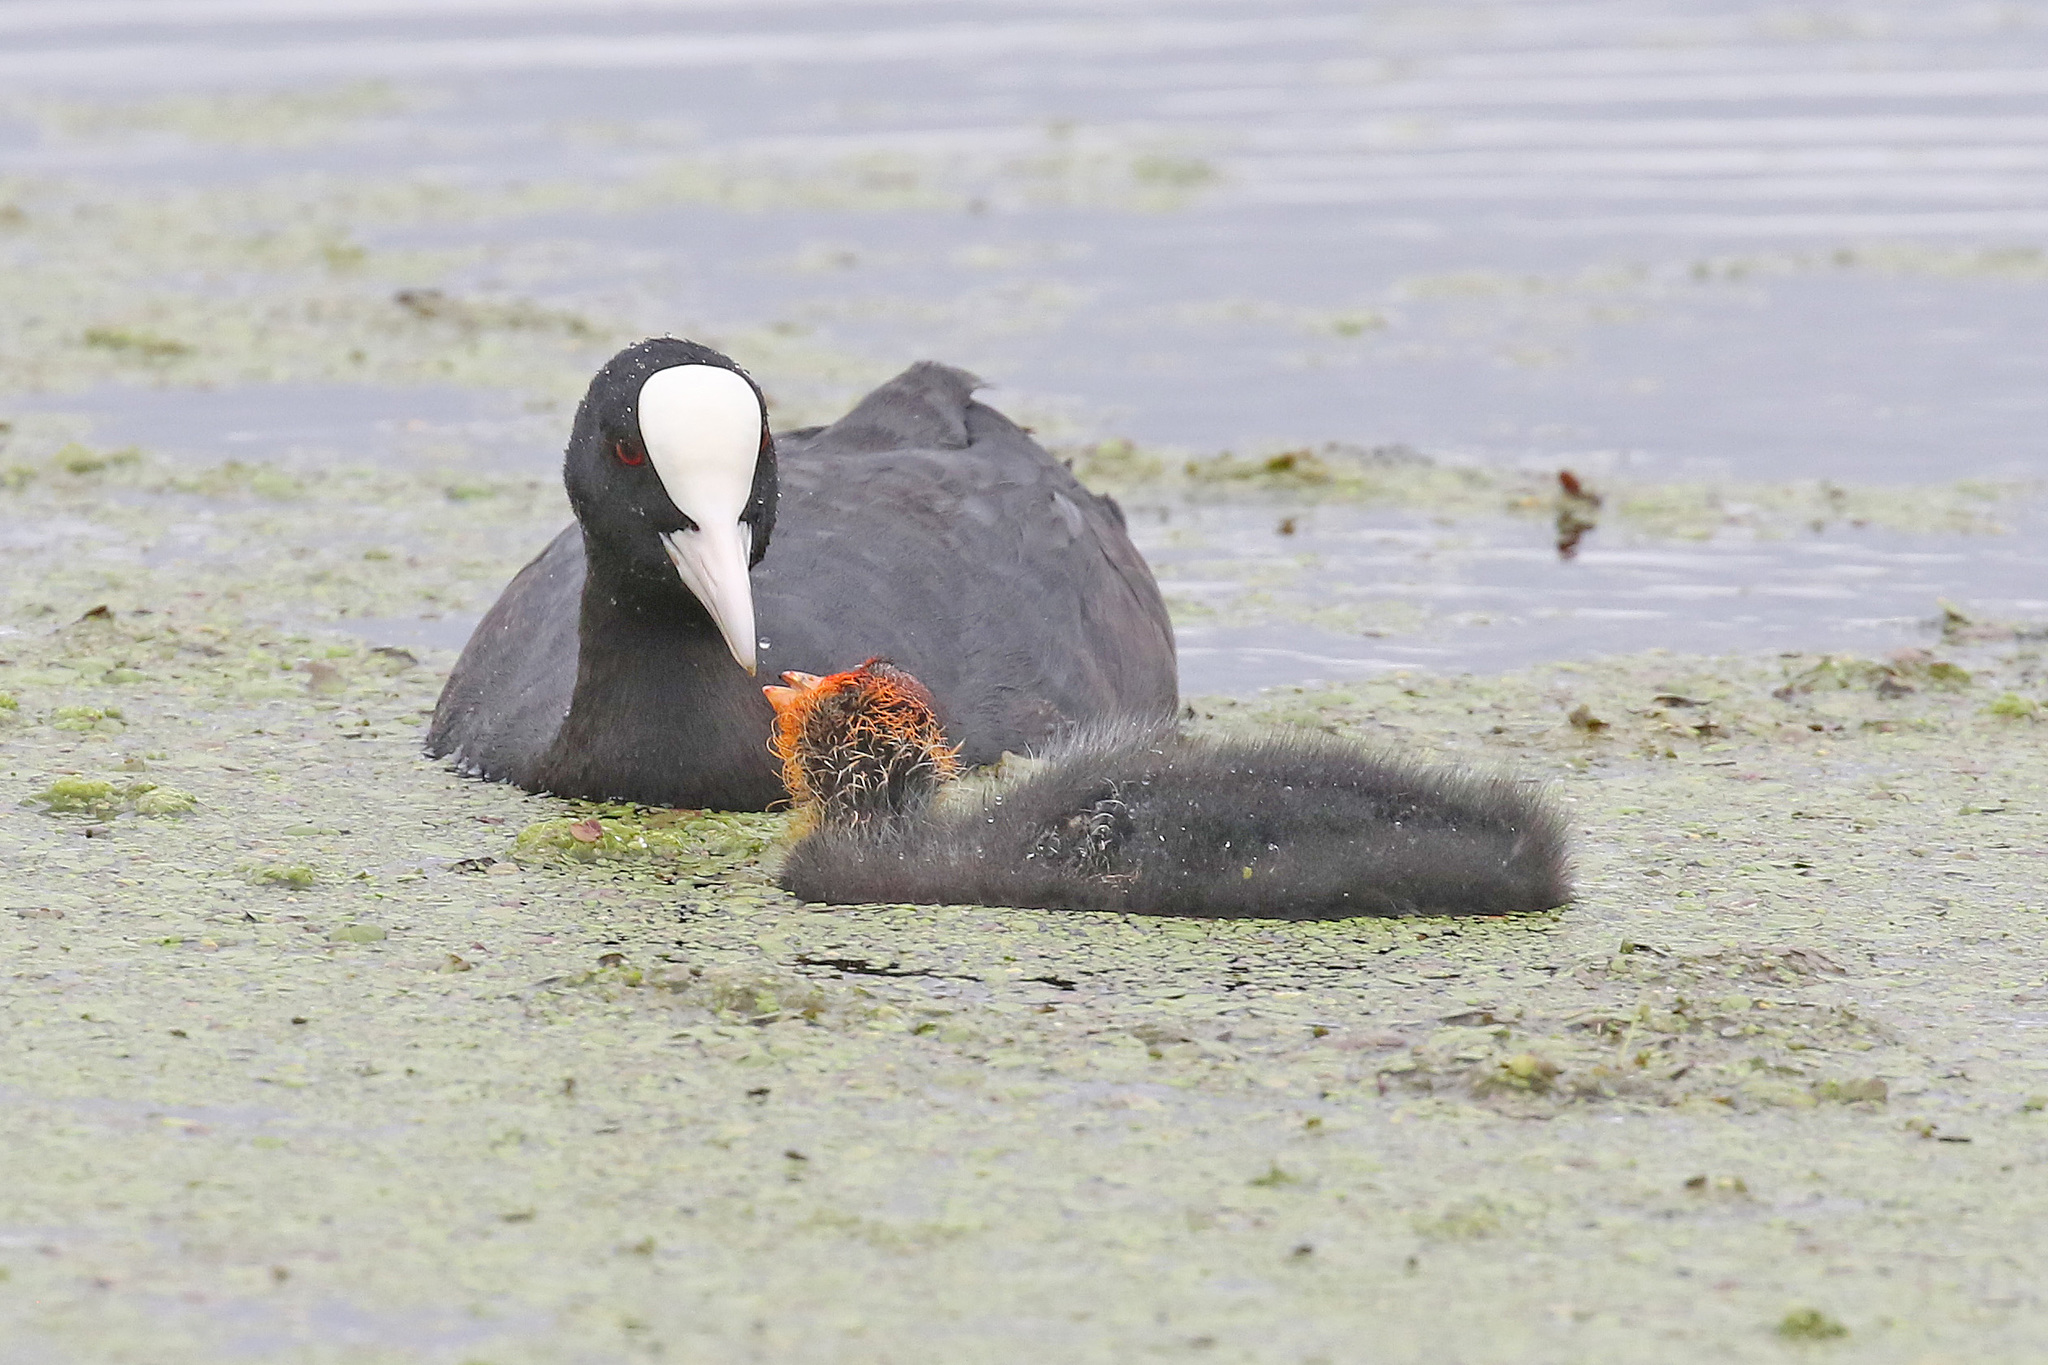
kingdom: Animalia
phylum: Chordata
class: Aves
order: Gruiformes
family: Rallidae
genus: Fulica
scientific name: Fulica atra
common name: Eurasian coot
